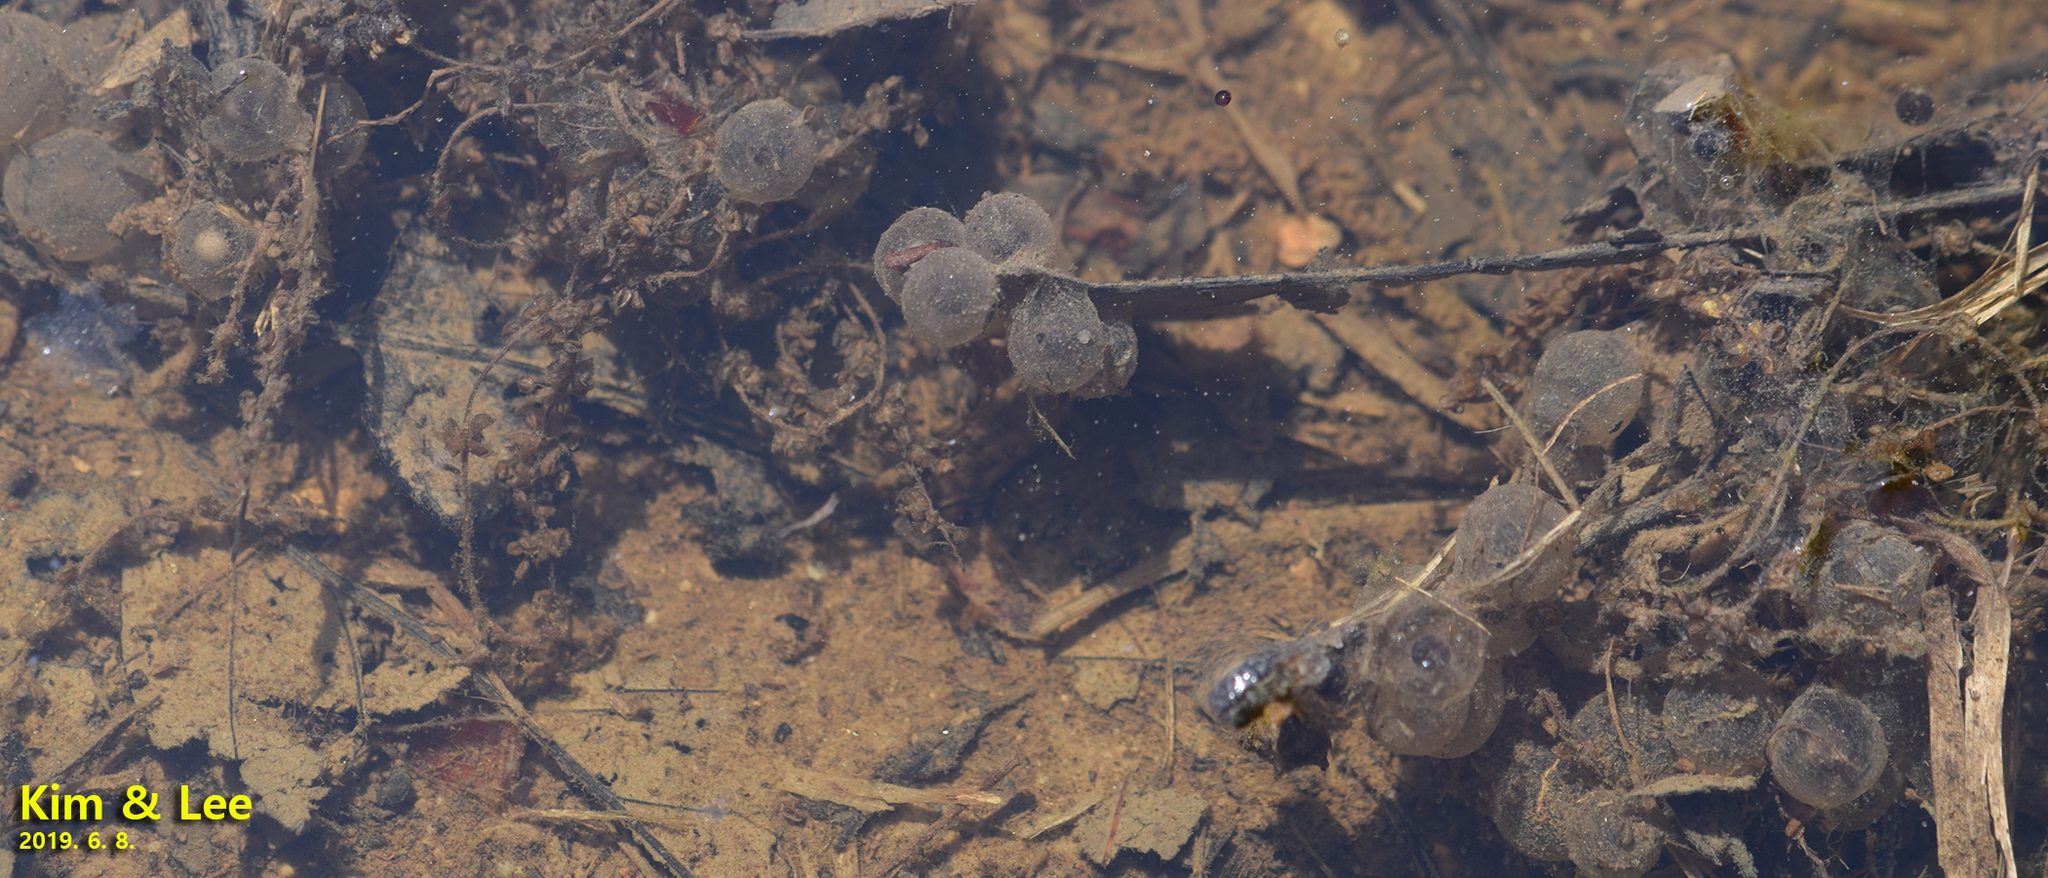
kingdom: Animalia
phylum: Chordata
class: Amphibia
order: Anura
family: Bombinatoridae
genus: Bombina
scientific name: Bombina orientalis
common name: Oriental firebelly toad
